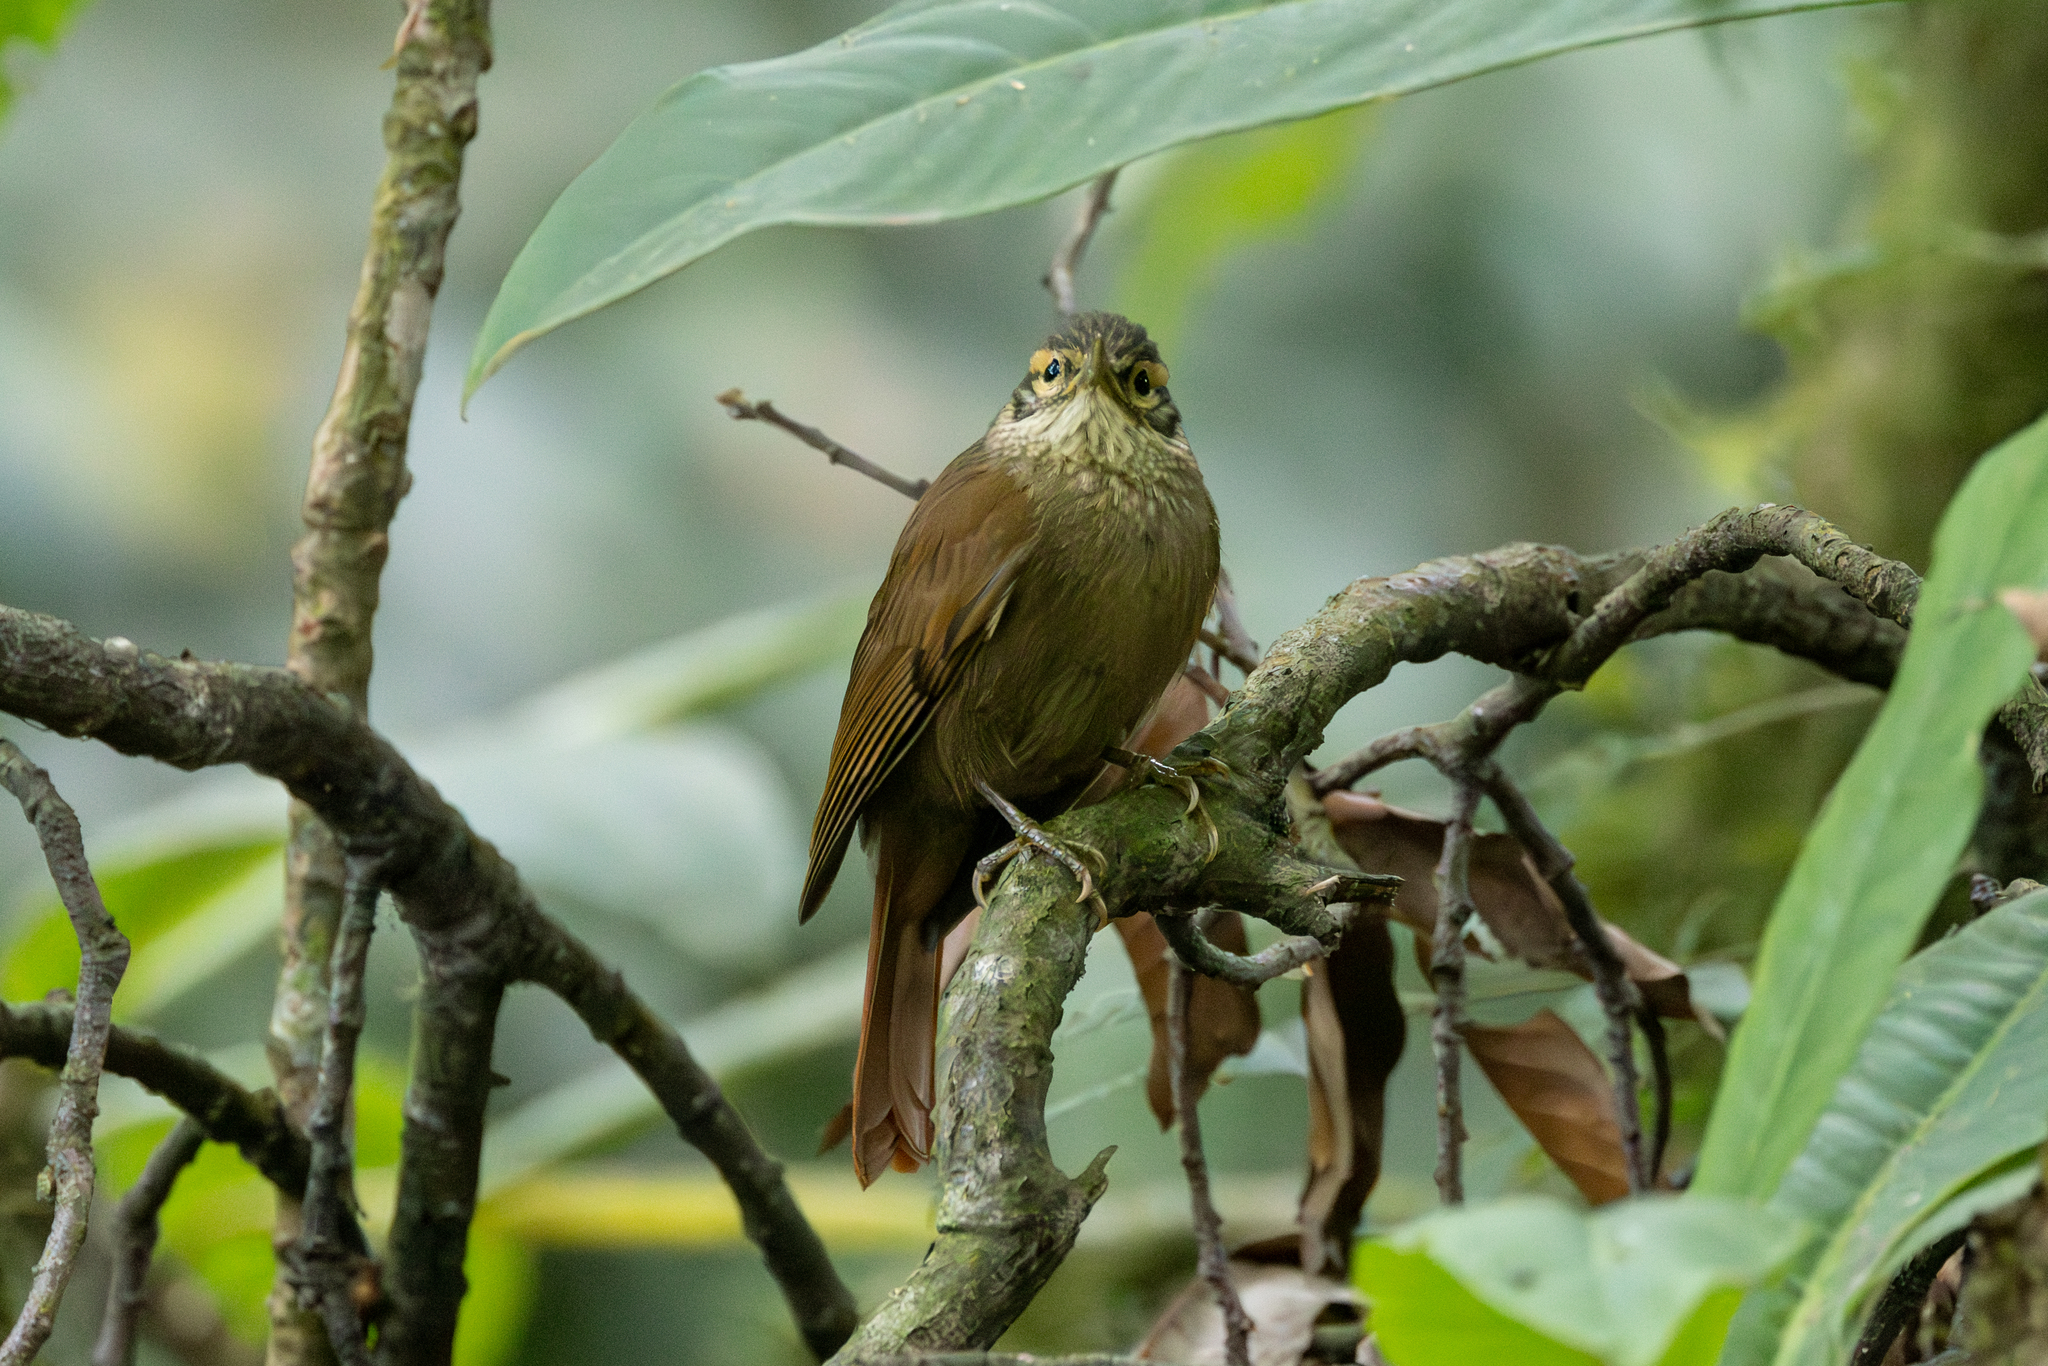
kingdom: Animalia
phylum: Chordata
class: Aves
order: Passeriformes
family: Furnariidae
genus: Anabacerthia
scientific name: Anabacerthia variegaticeps
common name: Scaly-throated foliage-gleaner
